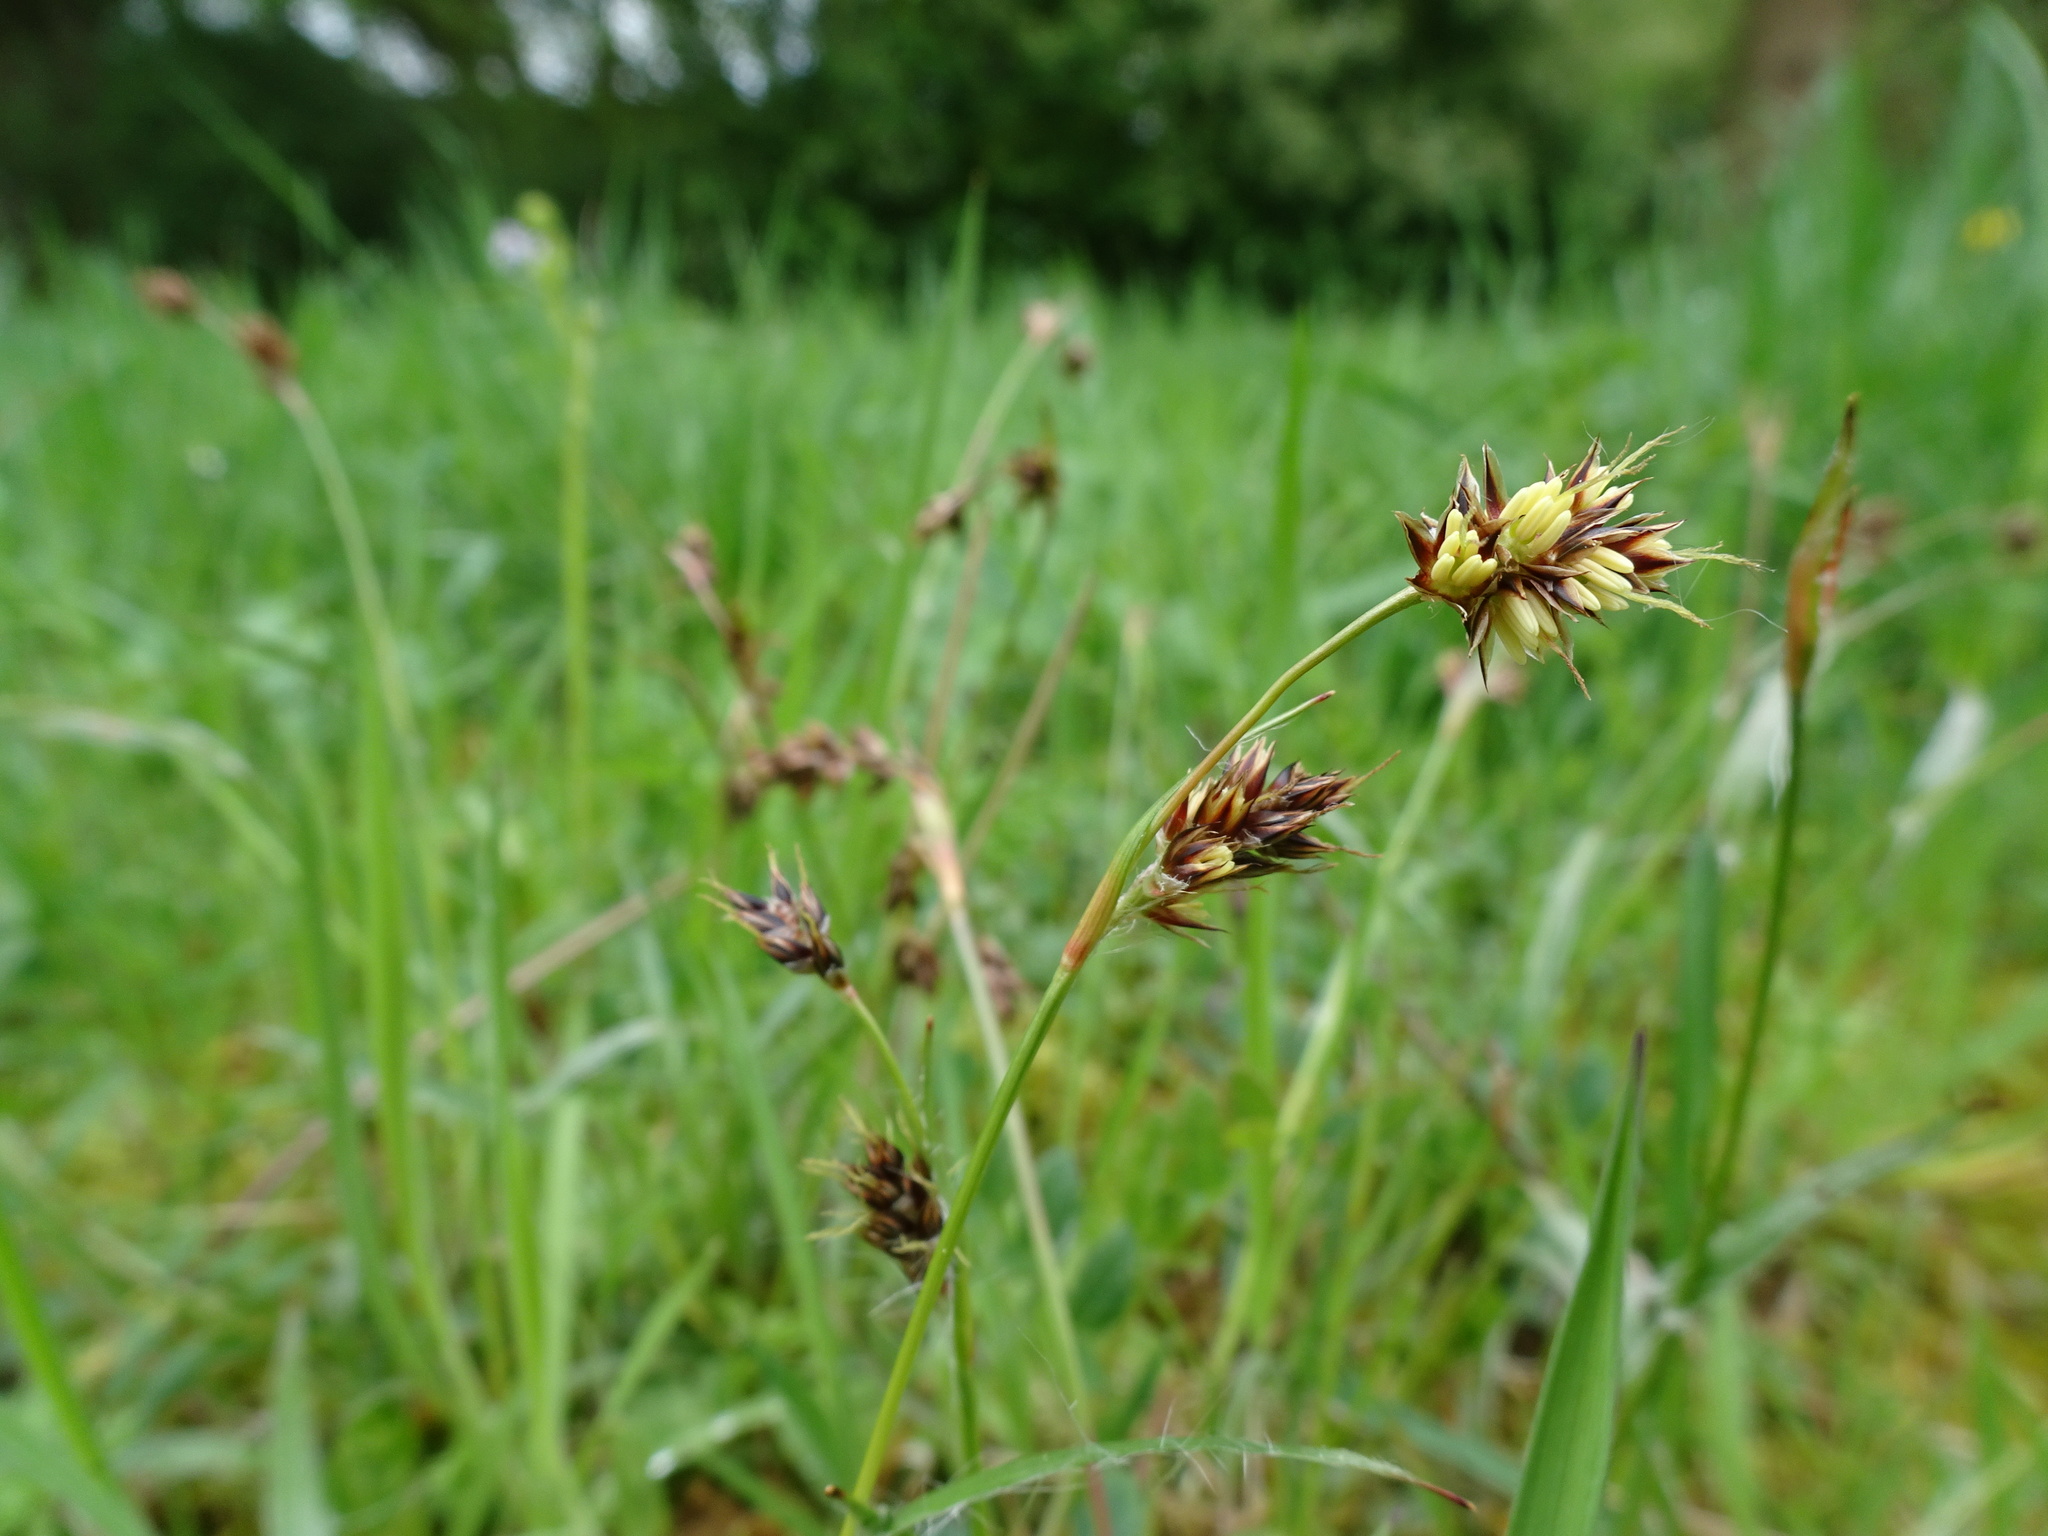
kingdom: Plantae
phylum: Tracheophyta
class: Liliopsida
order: Poales
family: Juncaceae
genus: Luzula
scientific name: Luzula campestris
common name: Field wood-rush
